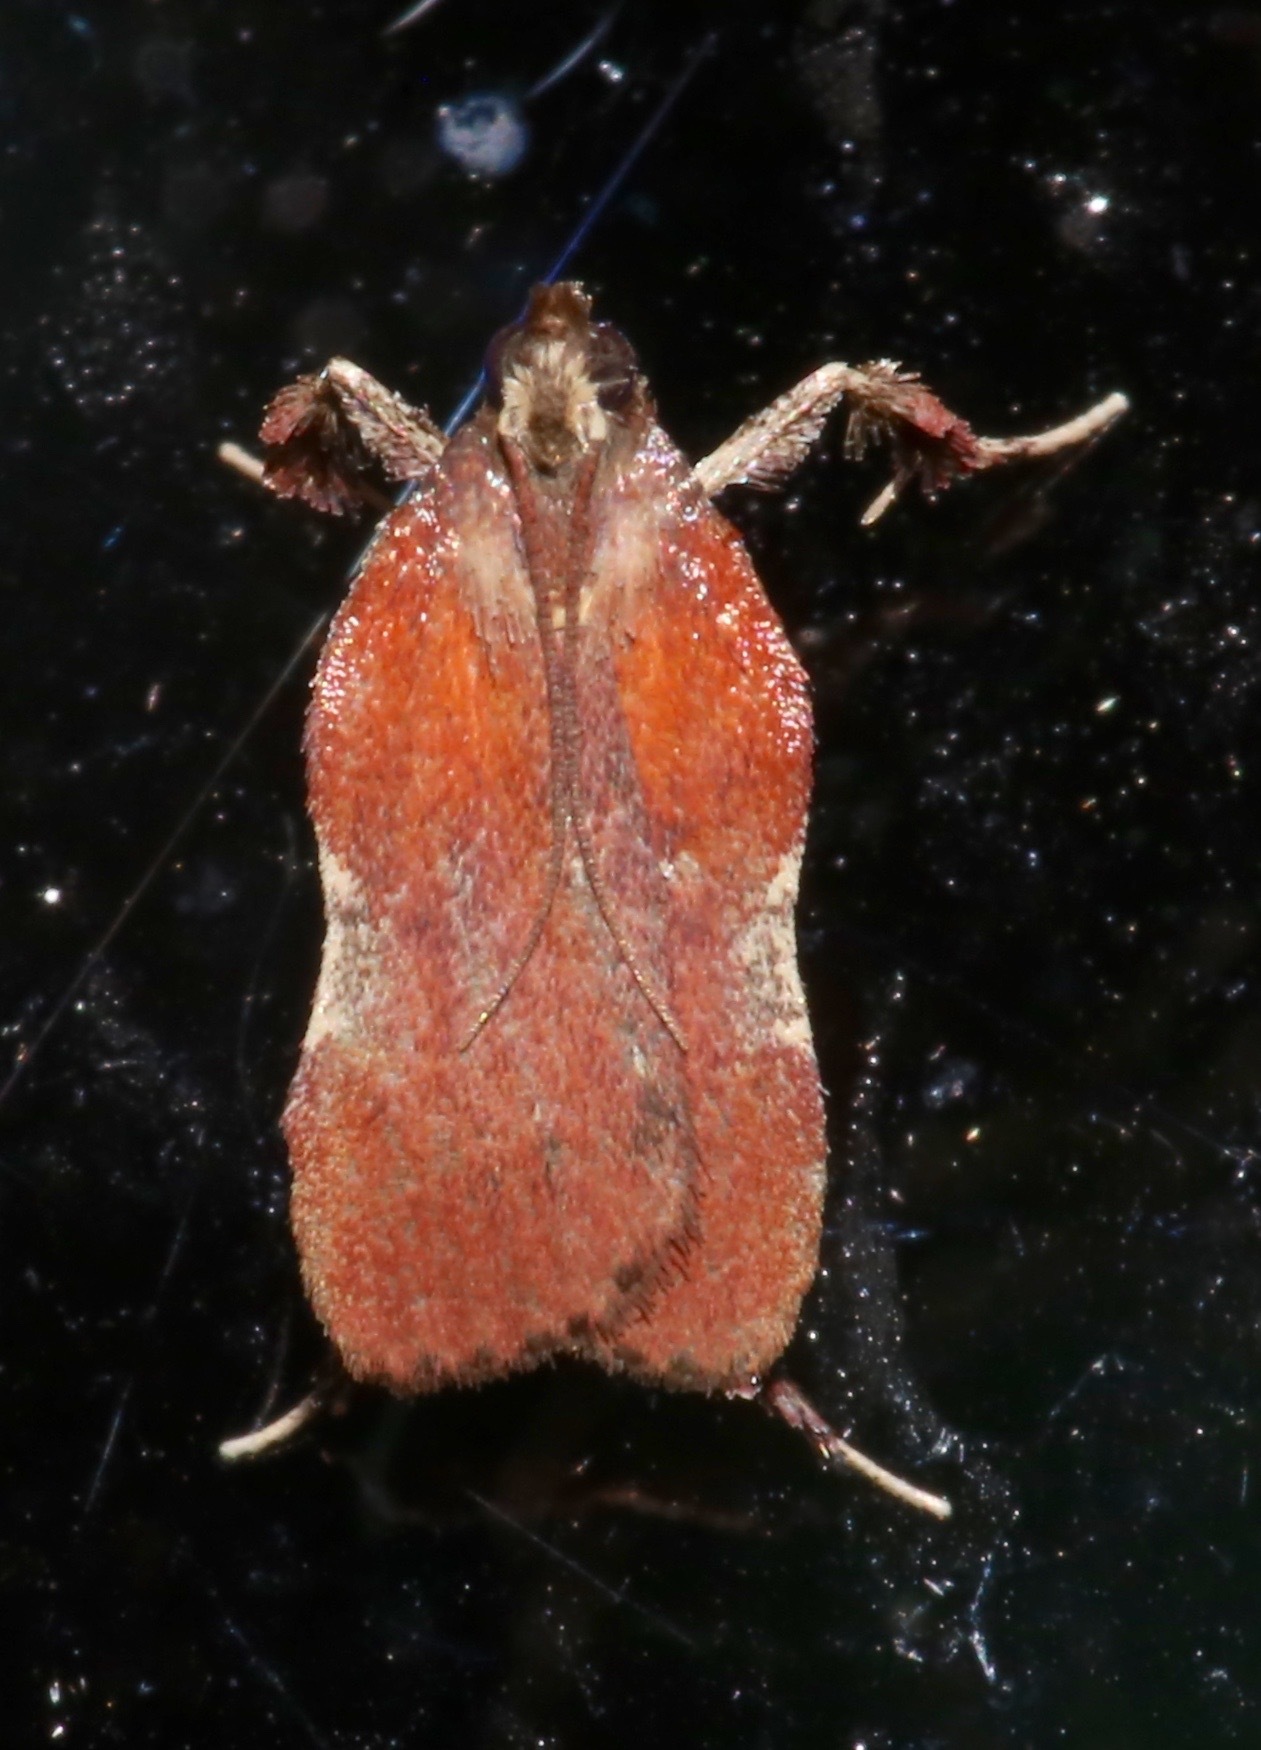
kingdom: Animalia
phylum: Arthropoda
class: Insecta
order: Lepidoptera
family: Pyralidae
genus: Galasa
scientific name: Galasa nigrinodis
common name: Boxwood leaftier moth
